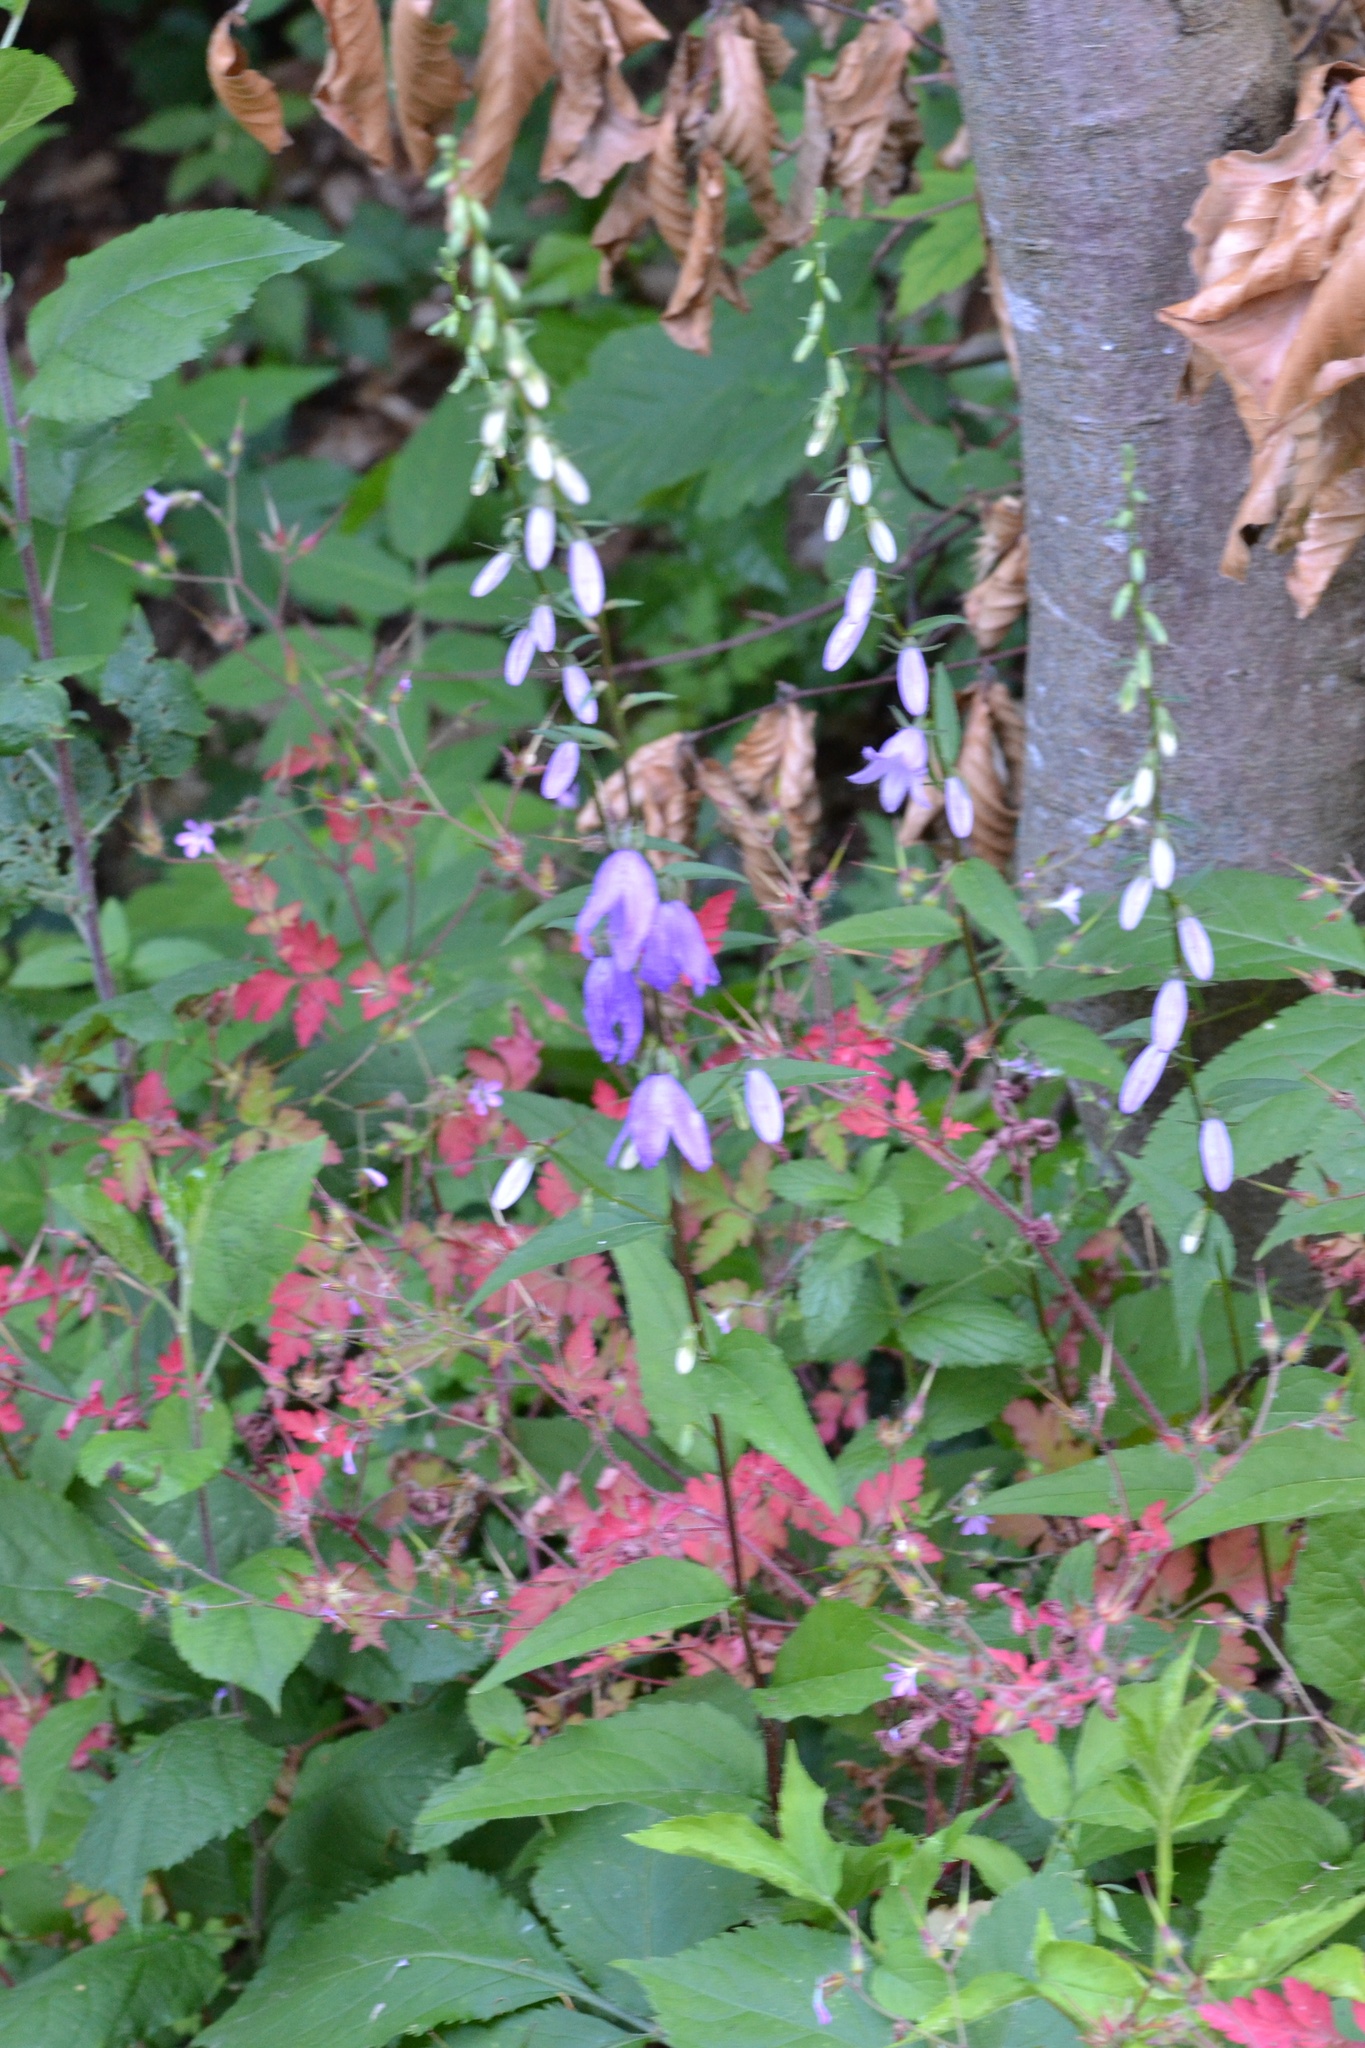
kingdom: Plantae
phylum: Tracheophyta
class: Magnoliopsida
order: Asterales
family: Campanulaceae
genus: Campanula
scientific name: Campanula rapunculoides
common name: Creeping bellflower
